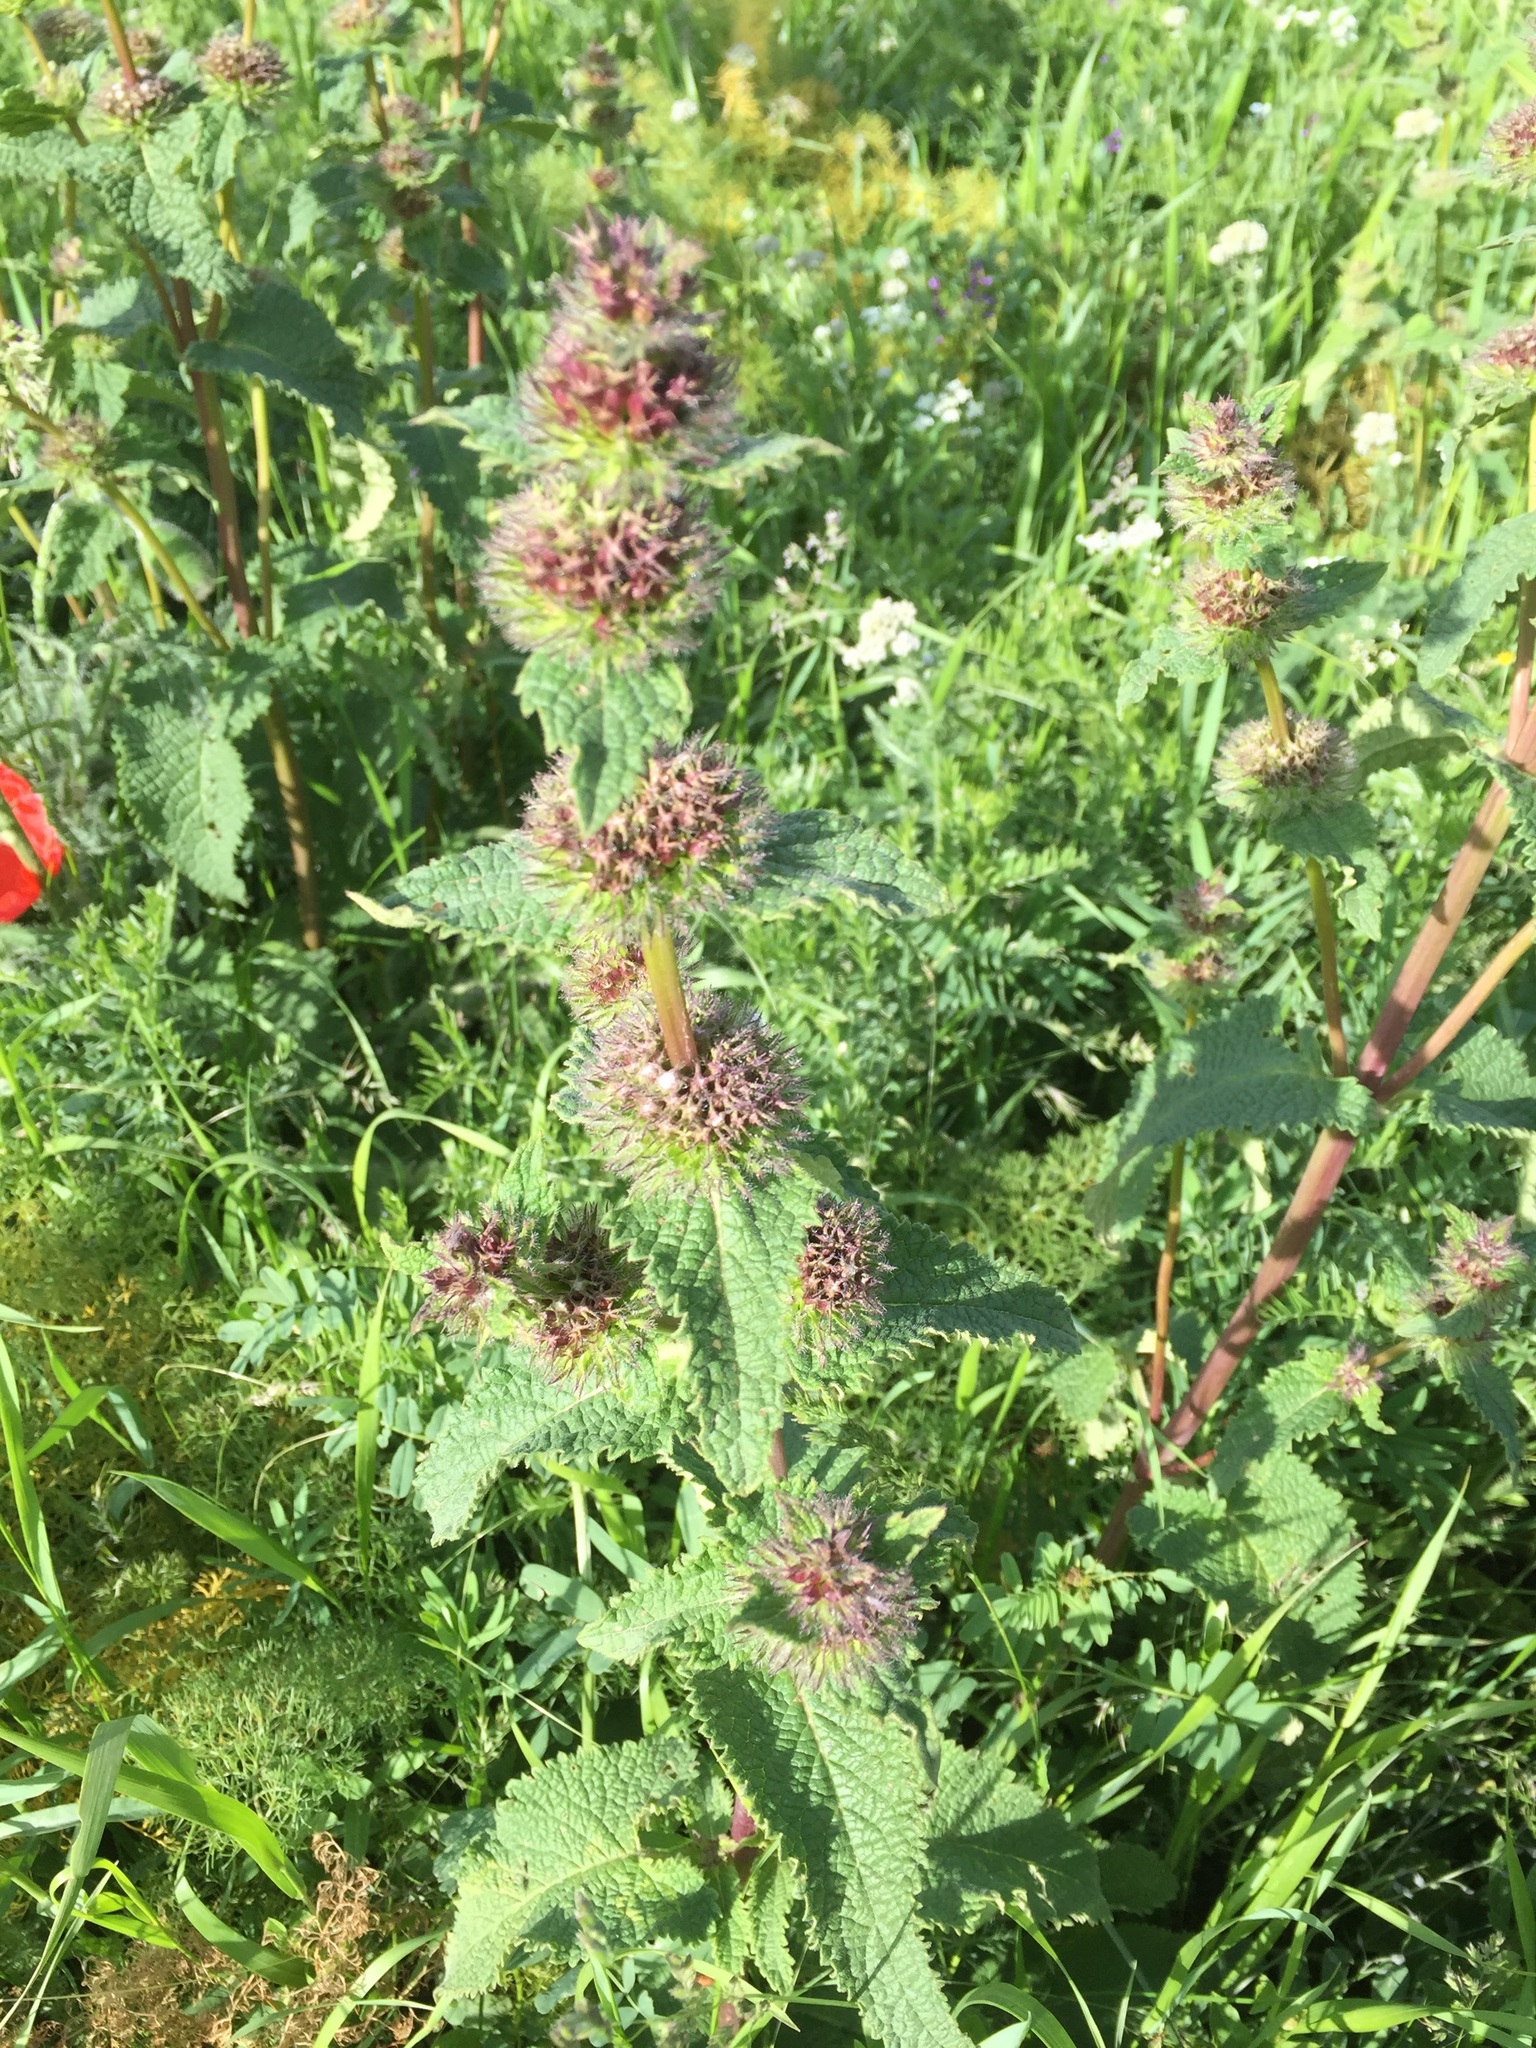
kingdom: Plantae
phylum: Tracheophyta
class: Magnoliopsida
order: Lamiales
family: Lamiaceae
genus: Phlomoides
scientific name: Phlomoides tuberosa
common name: Tuberous jerusalem sage
